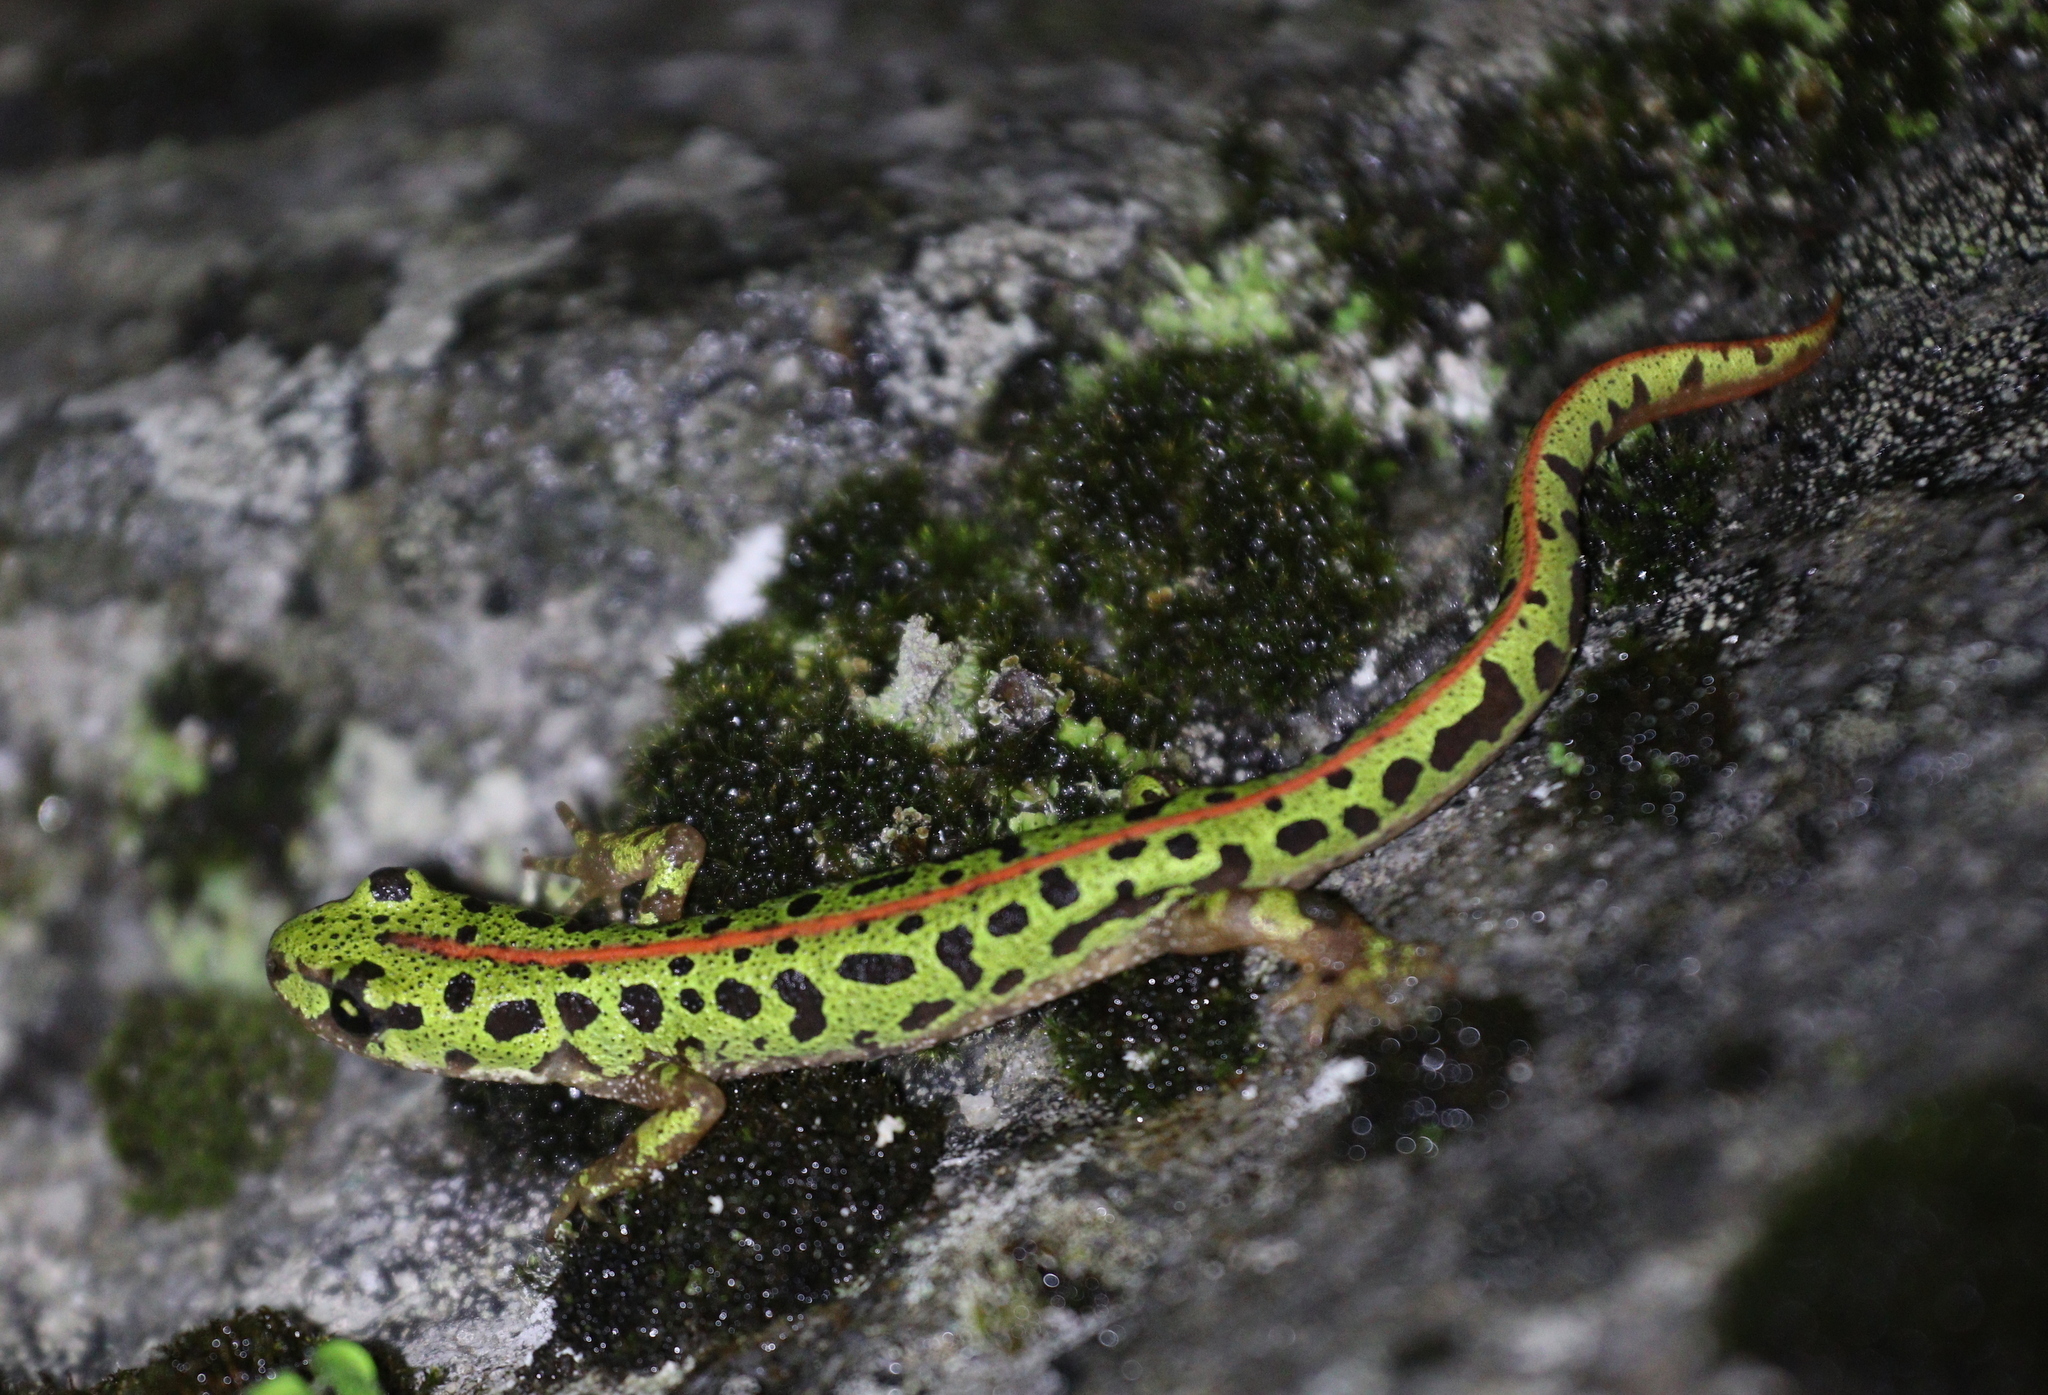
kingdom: Animalia
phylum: Chordata
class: Amphibia
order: Caudata
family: Salamandridae
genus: Triturus
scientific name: Triturus pygmaeus
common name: Southern marbled newt
